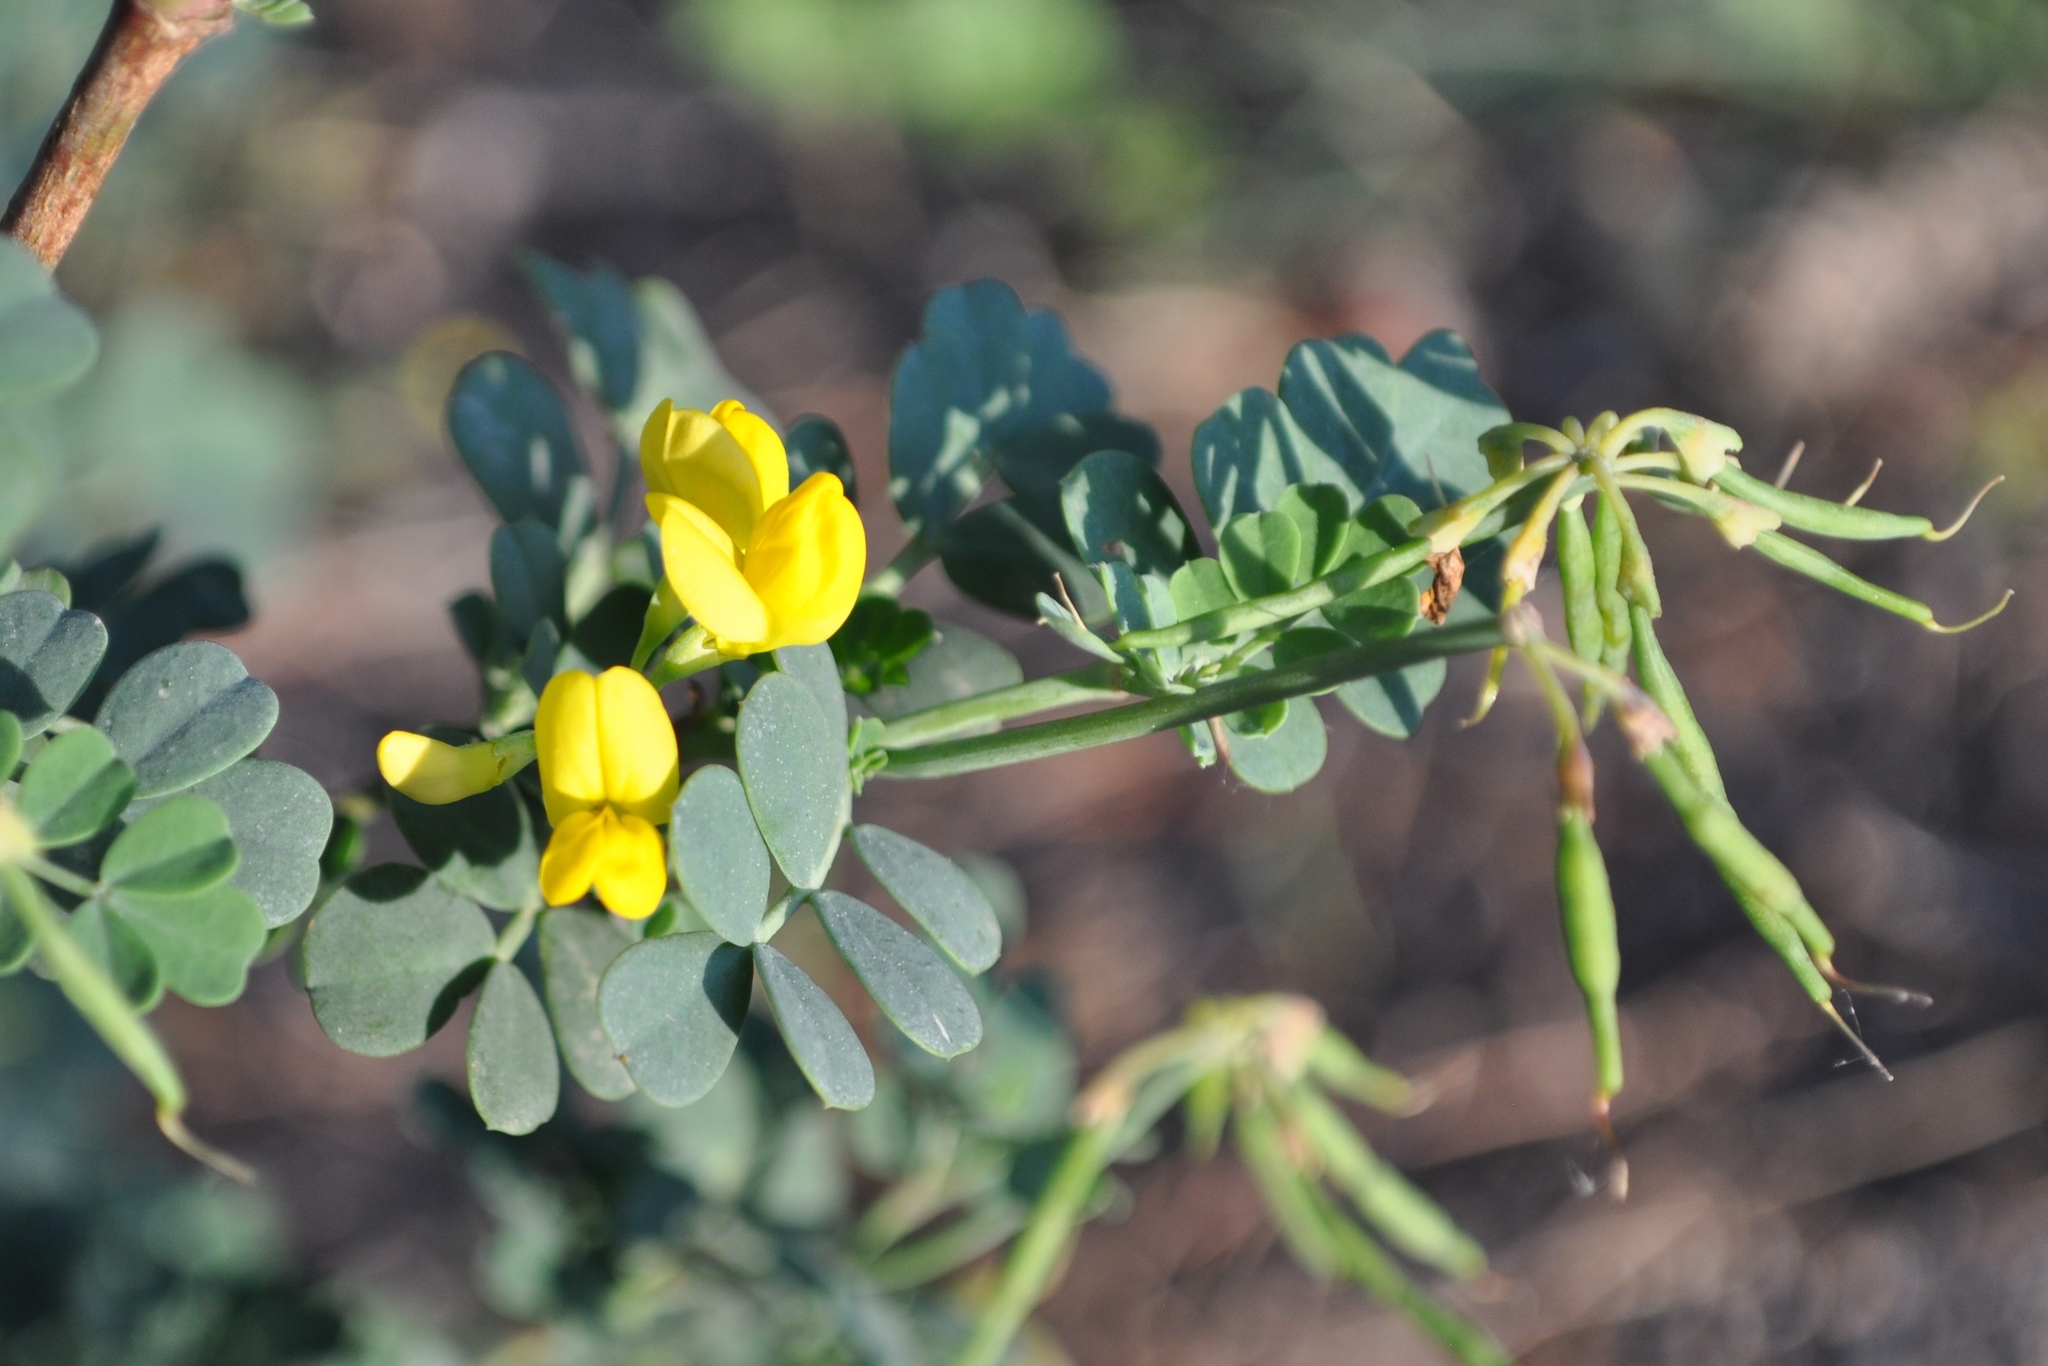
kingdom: Plantae
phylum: Tracheophyta
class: Magnoliopsida
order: Fabales
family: Fabaceae
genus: Coronilla
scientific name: Coronilla valentina
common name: Shrubby scorpion-vetch
